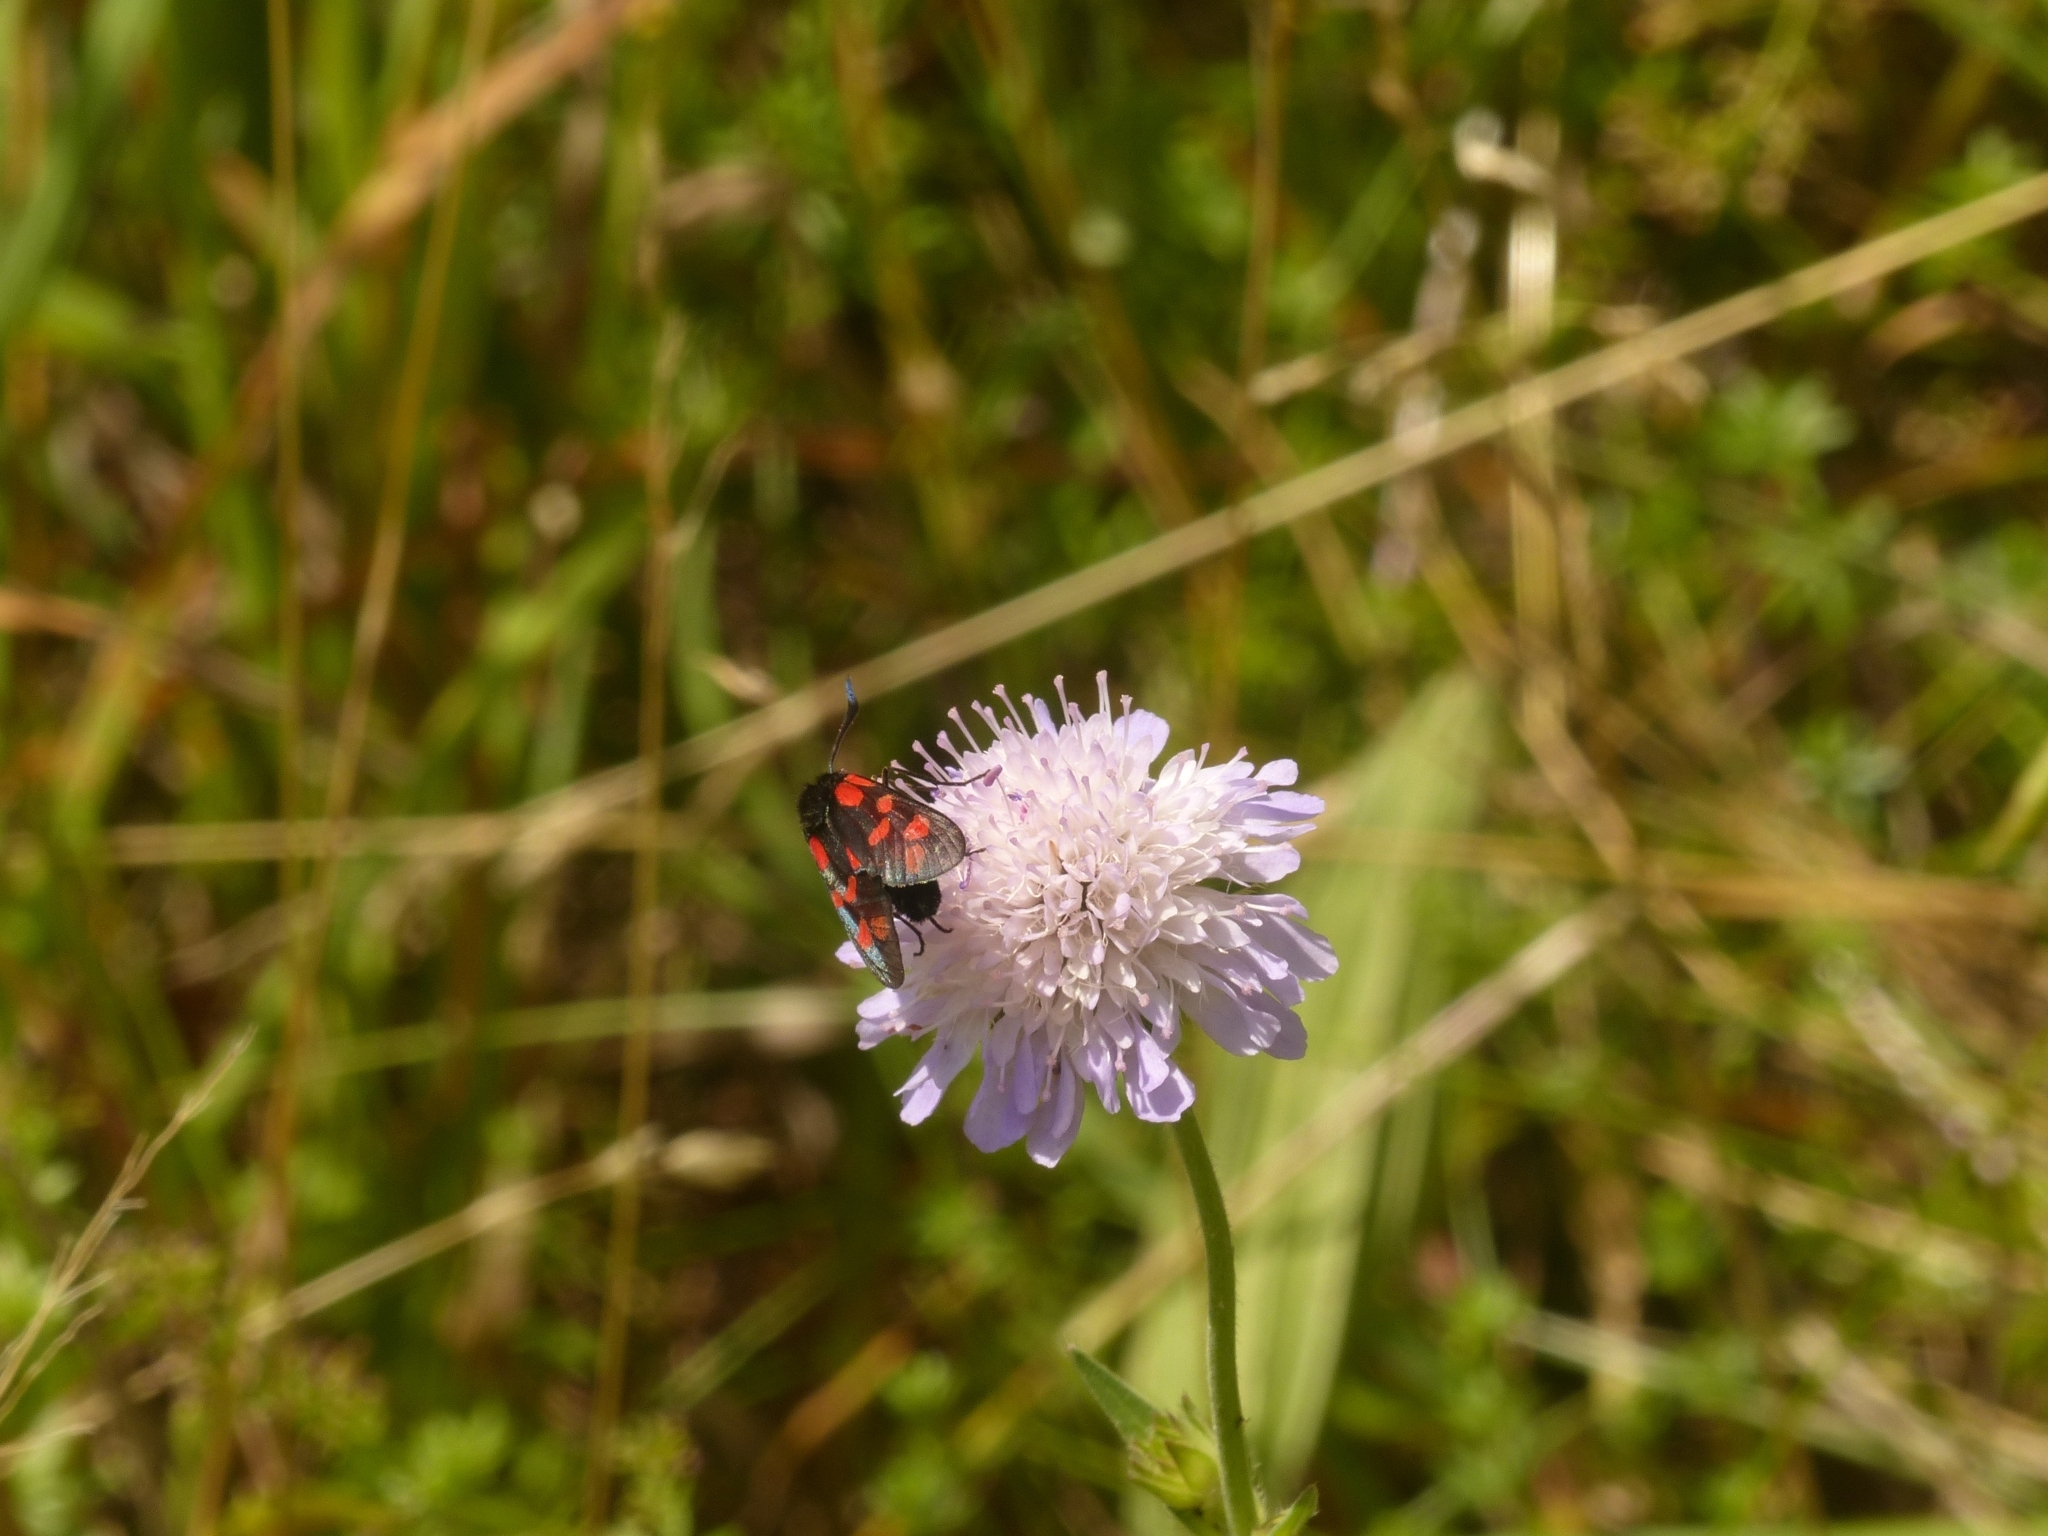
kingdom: Animalia
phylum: Arthropoda
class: Insecta
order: Lepidoptera
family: Zygaenidae
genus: Zygaena
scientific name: Zygaena filipendulae
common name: Six-spot burnet
